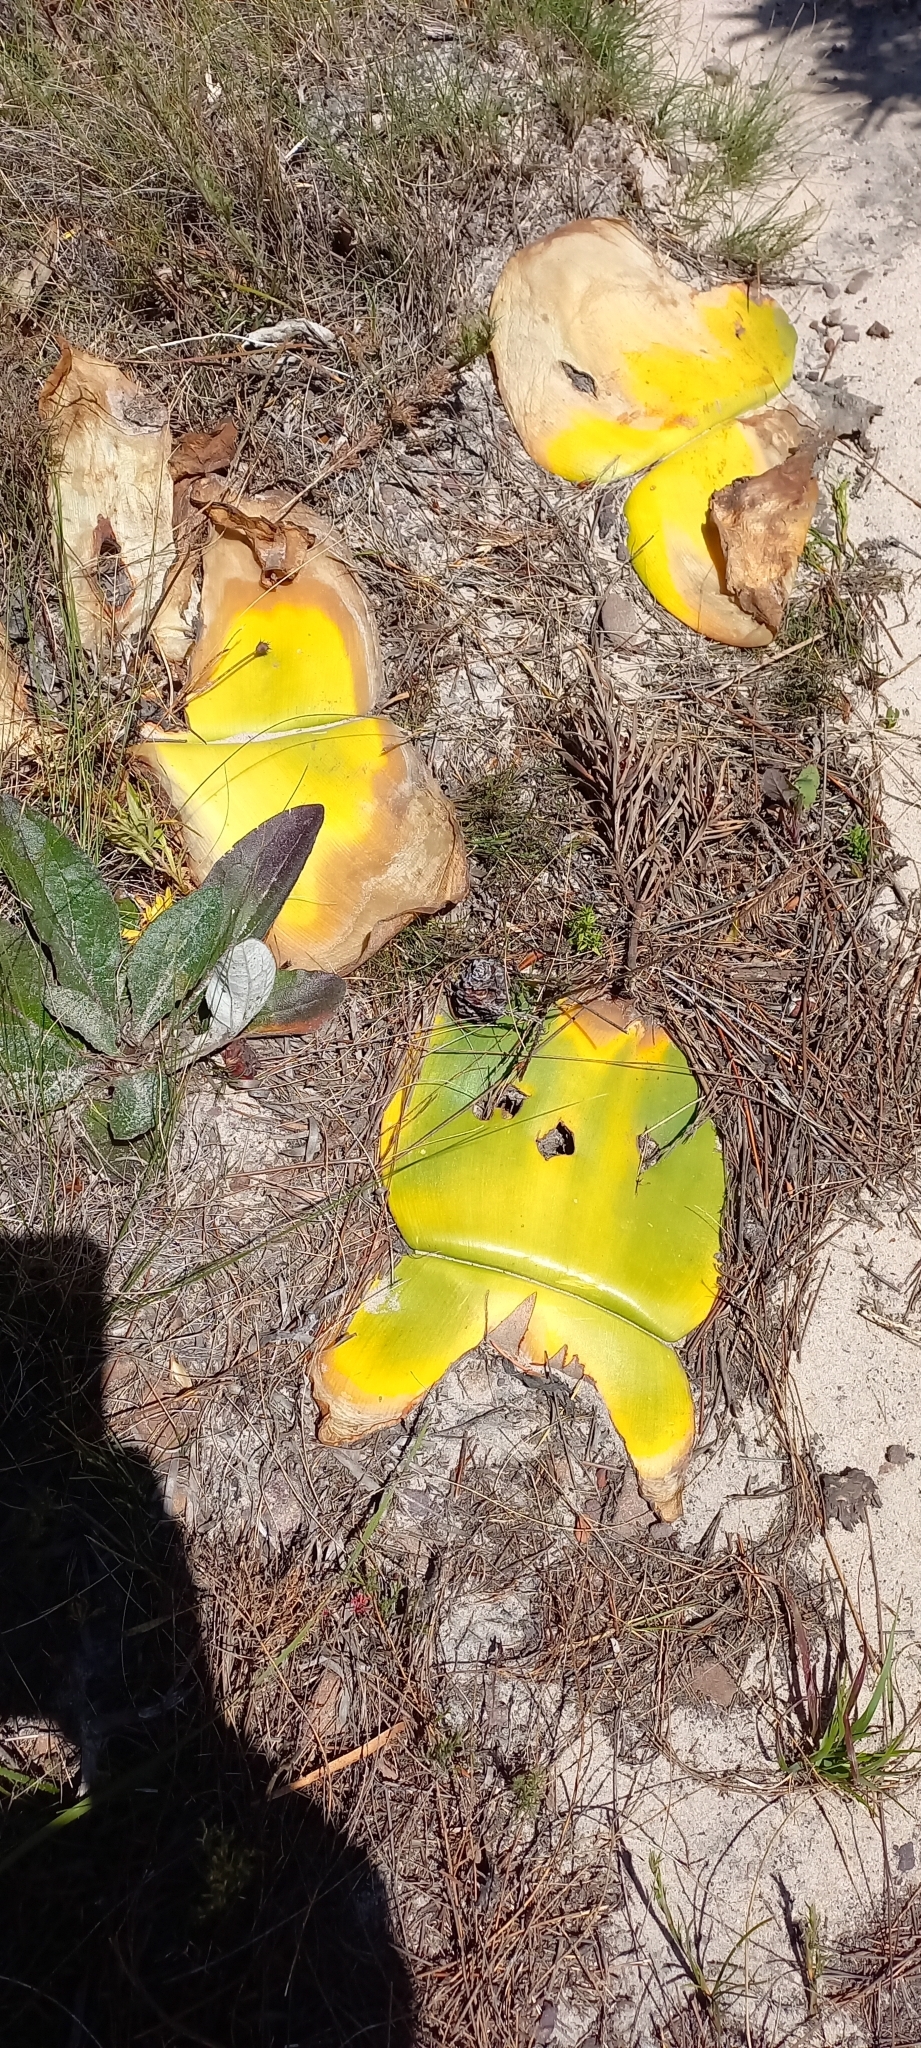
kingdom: Plantae
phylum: Tracheophyta
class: Liliopsida
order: Asparagales
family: Amaryllidaceae
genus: Haemanthus
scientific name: Haemanthus sanguineus
